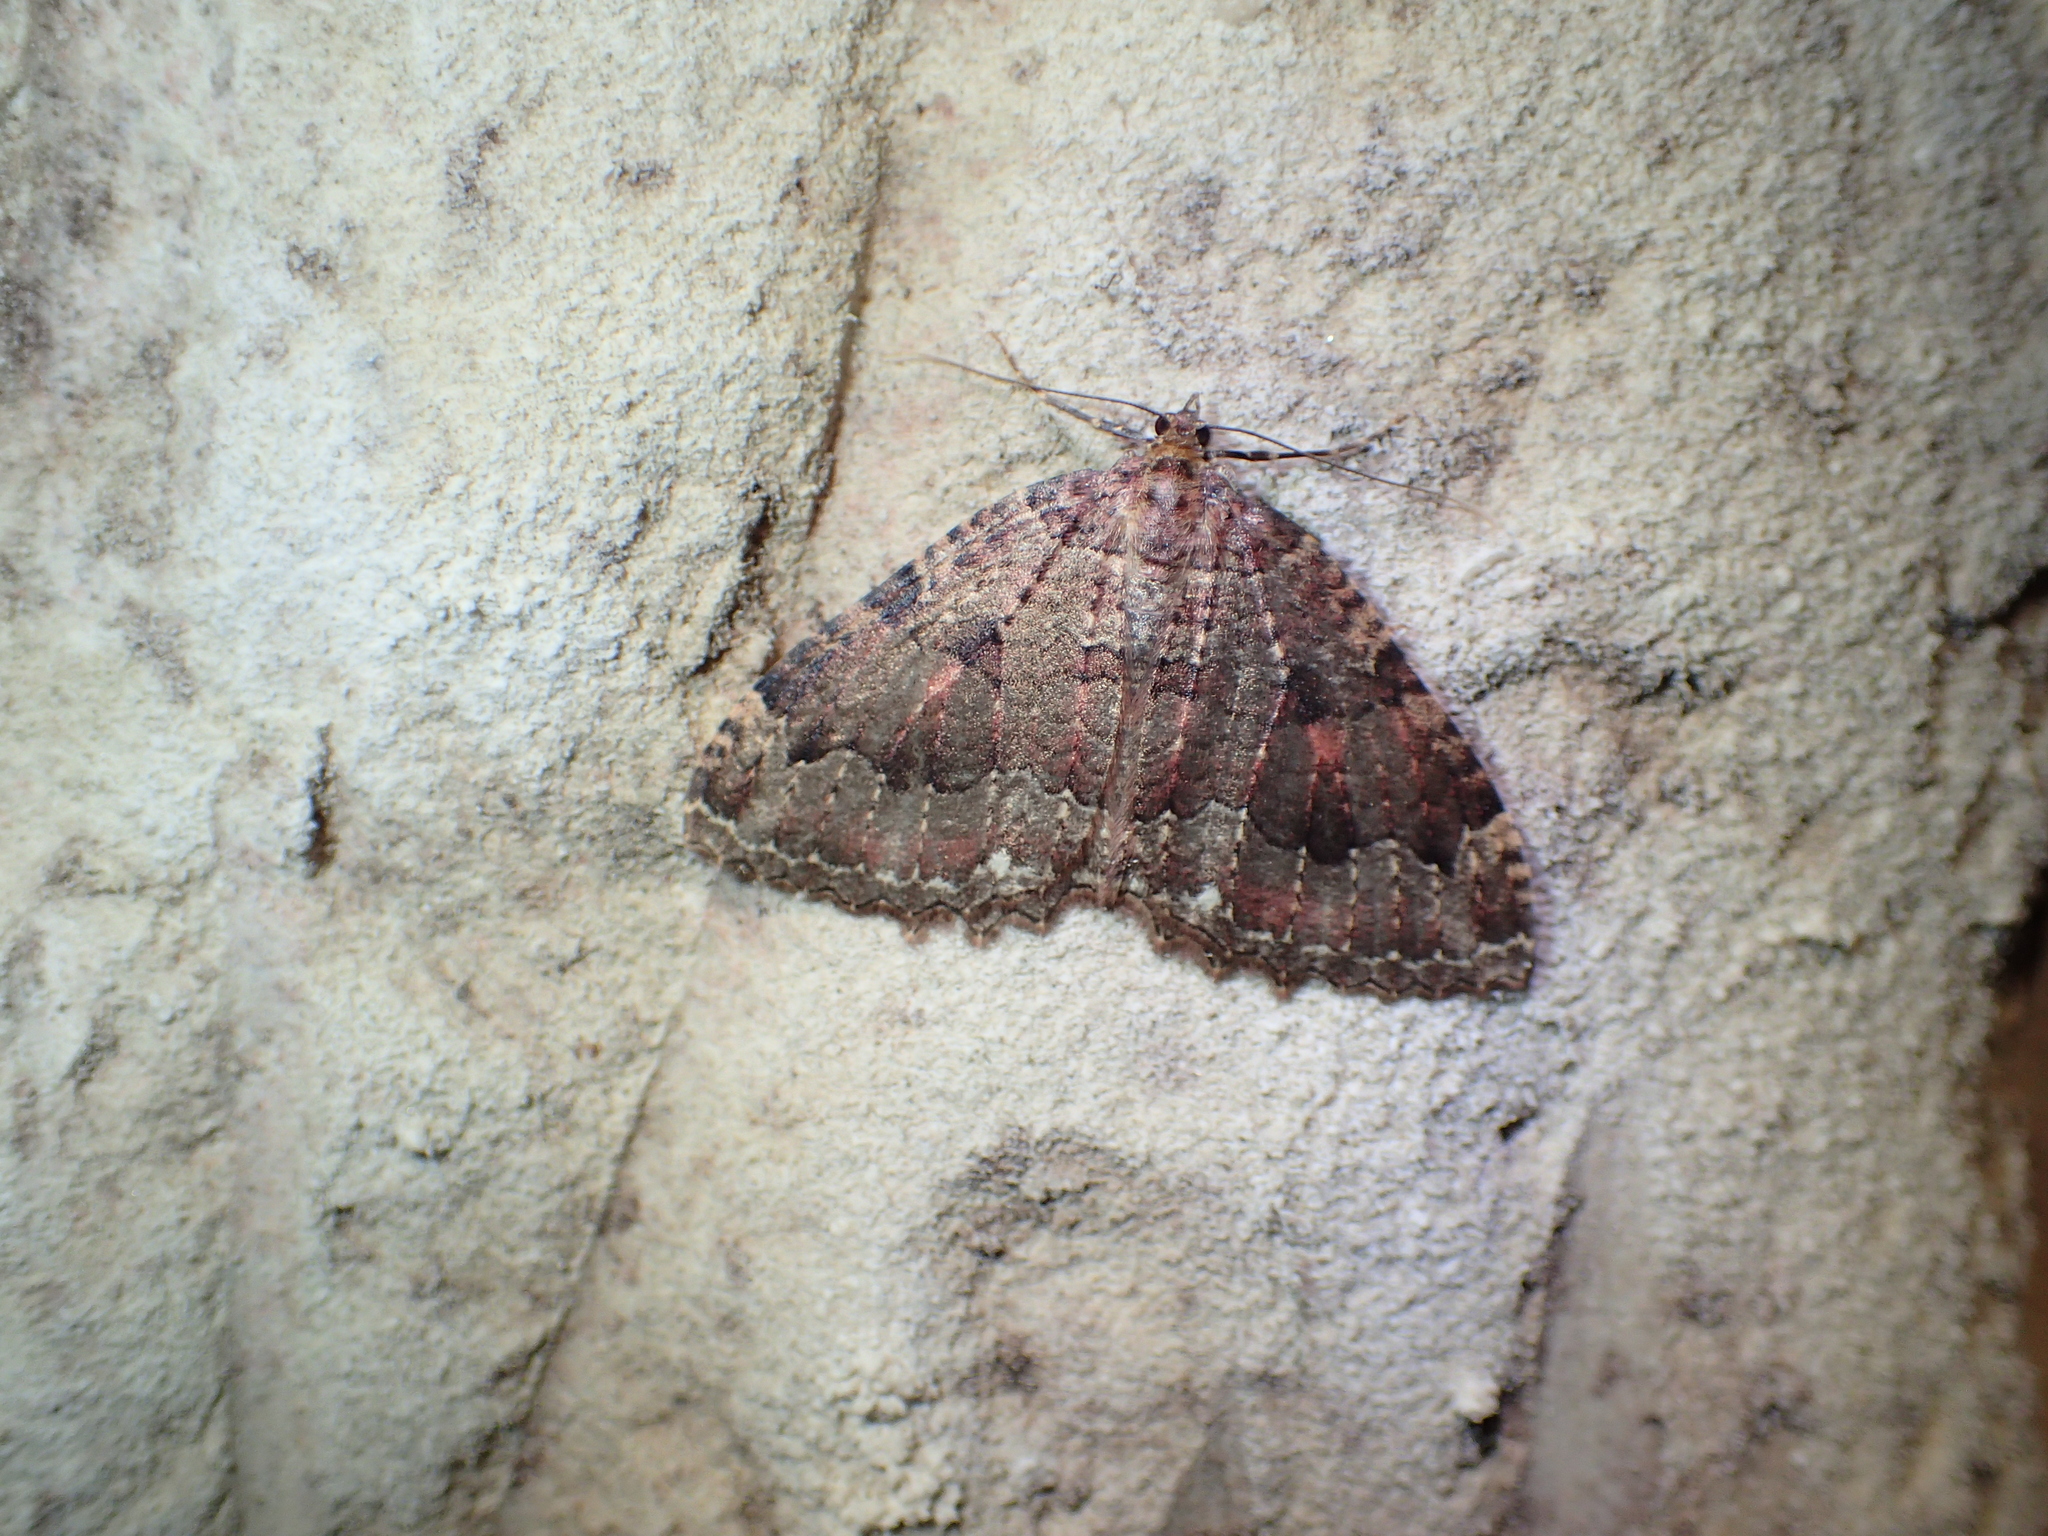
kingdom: Animalia
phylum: Arthropoda
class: Insecta
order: Lepidoptera
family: Geometridae
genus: Triphosa
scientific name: Triphosa dubitata
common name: Tissue
